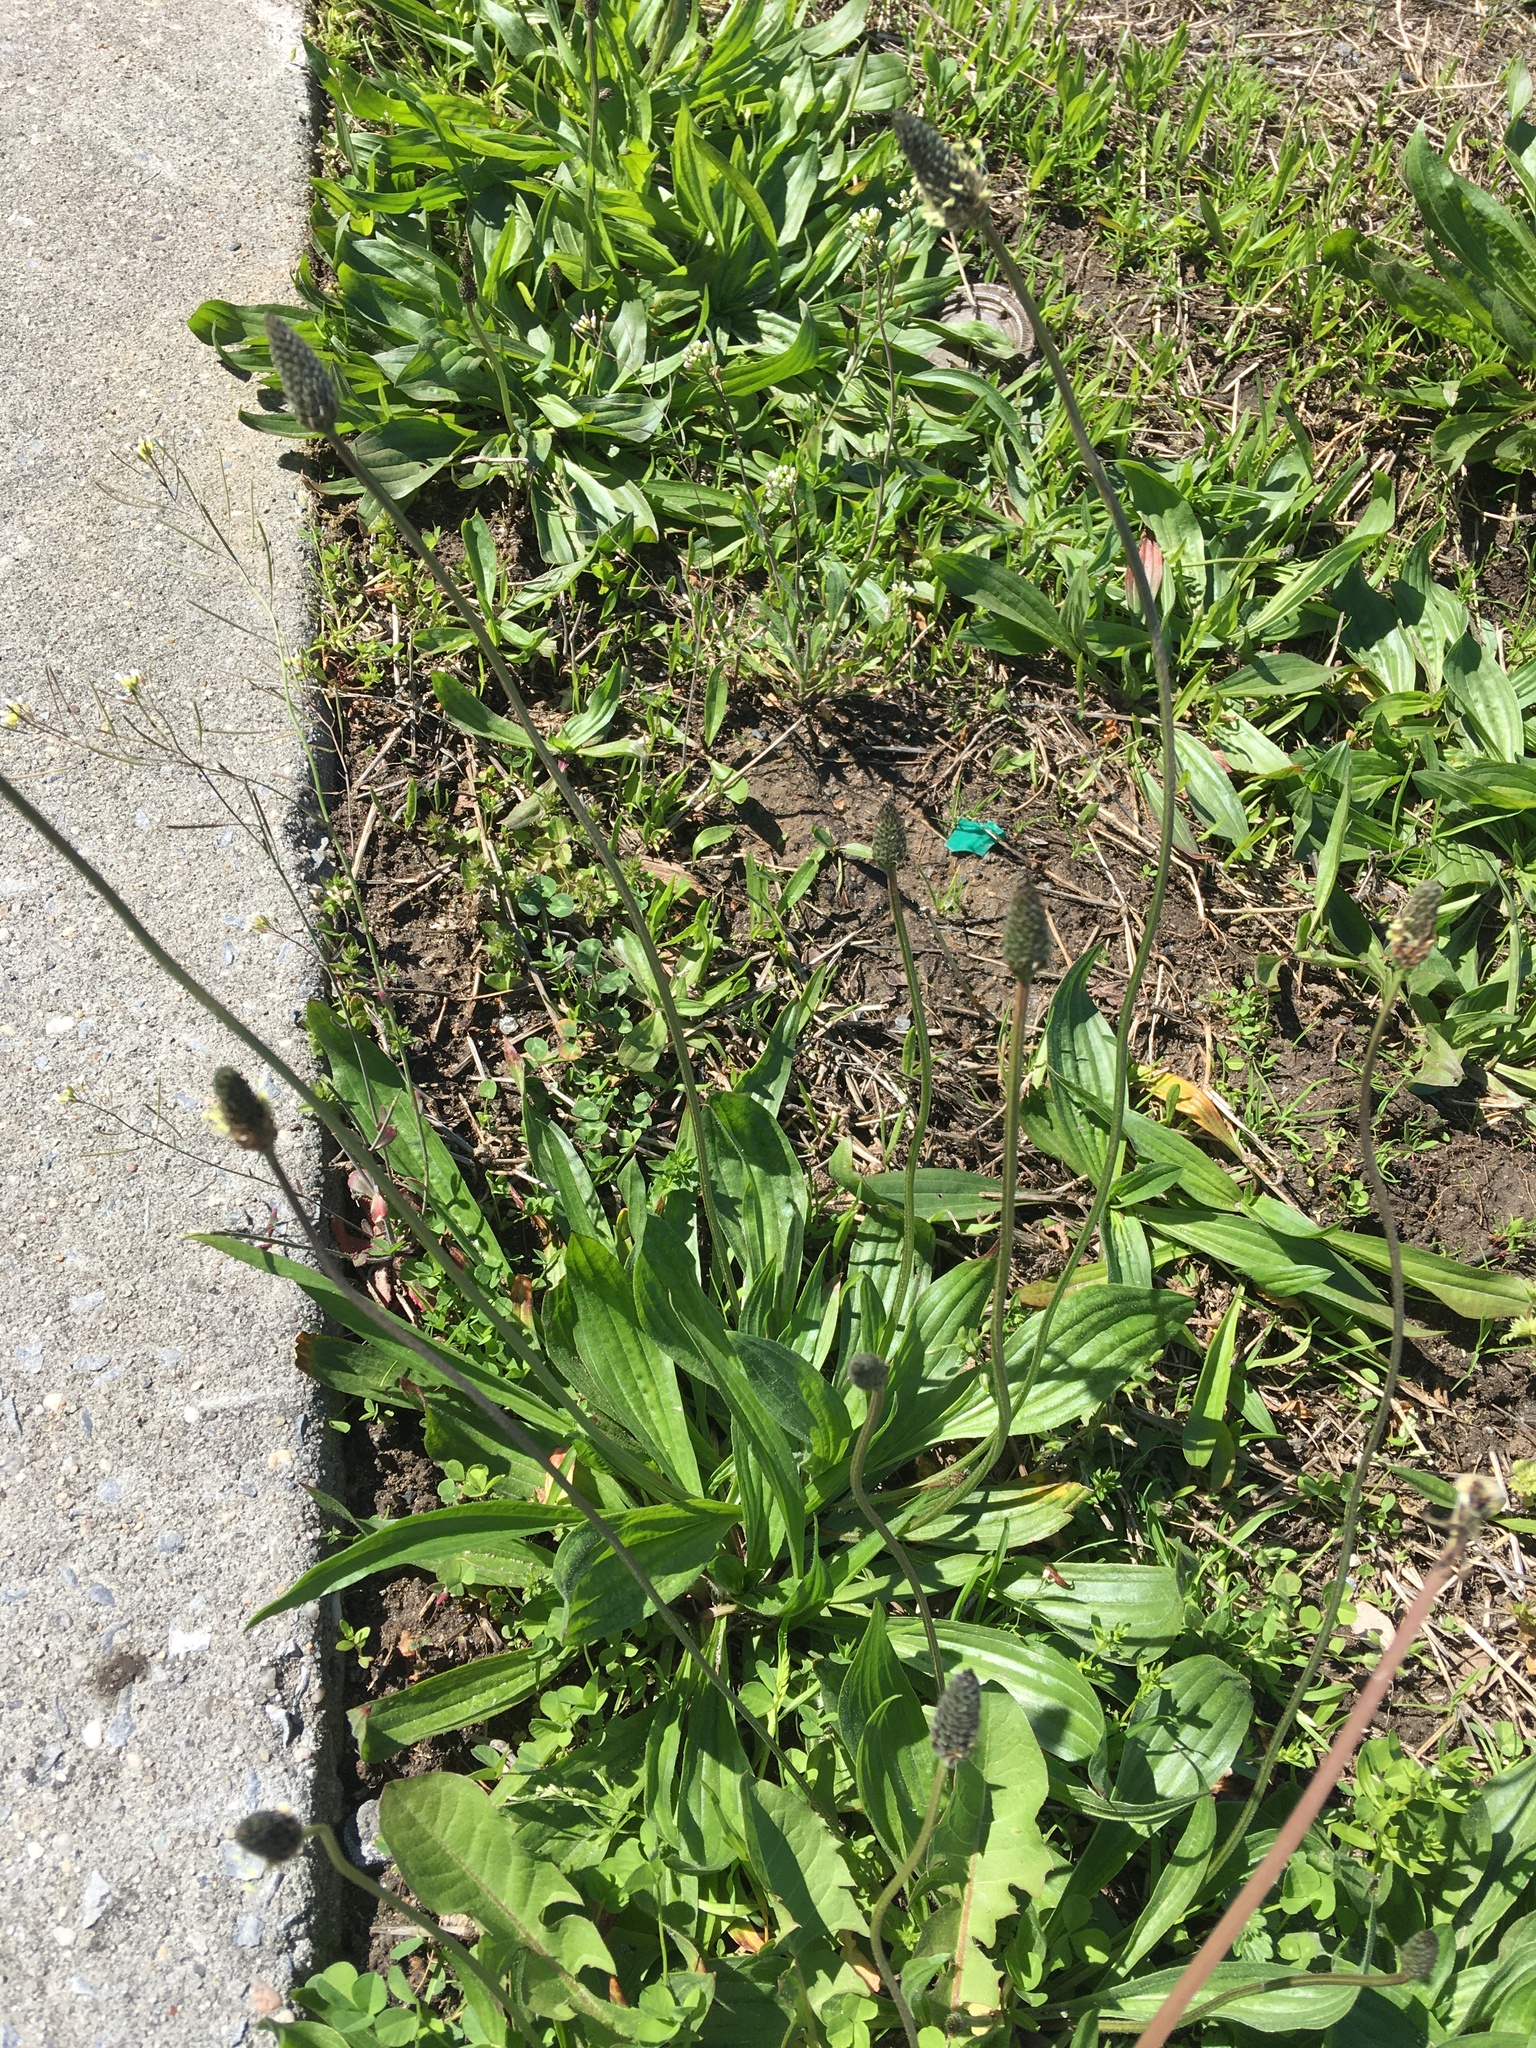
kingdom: Plantae
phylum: Tracheophyta
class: Magnoliopsida
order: Lamiales
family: Plantaginaceae
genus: Plantago
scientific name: Plantago lanceolata
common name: Ribwort plantain
